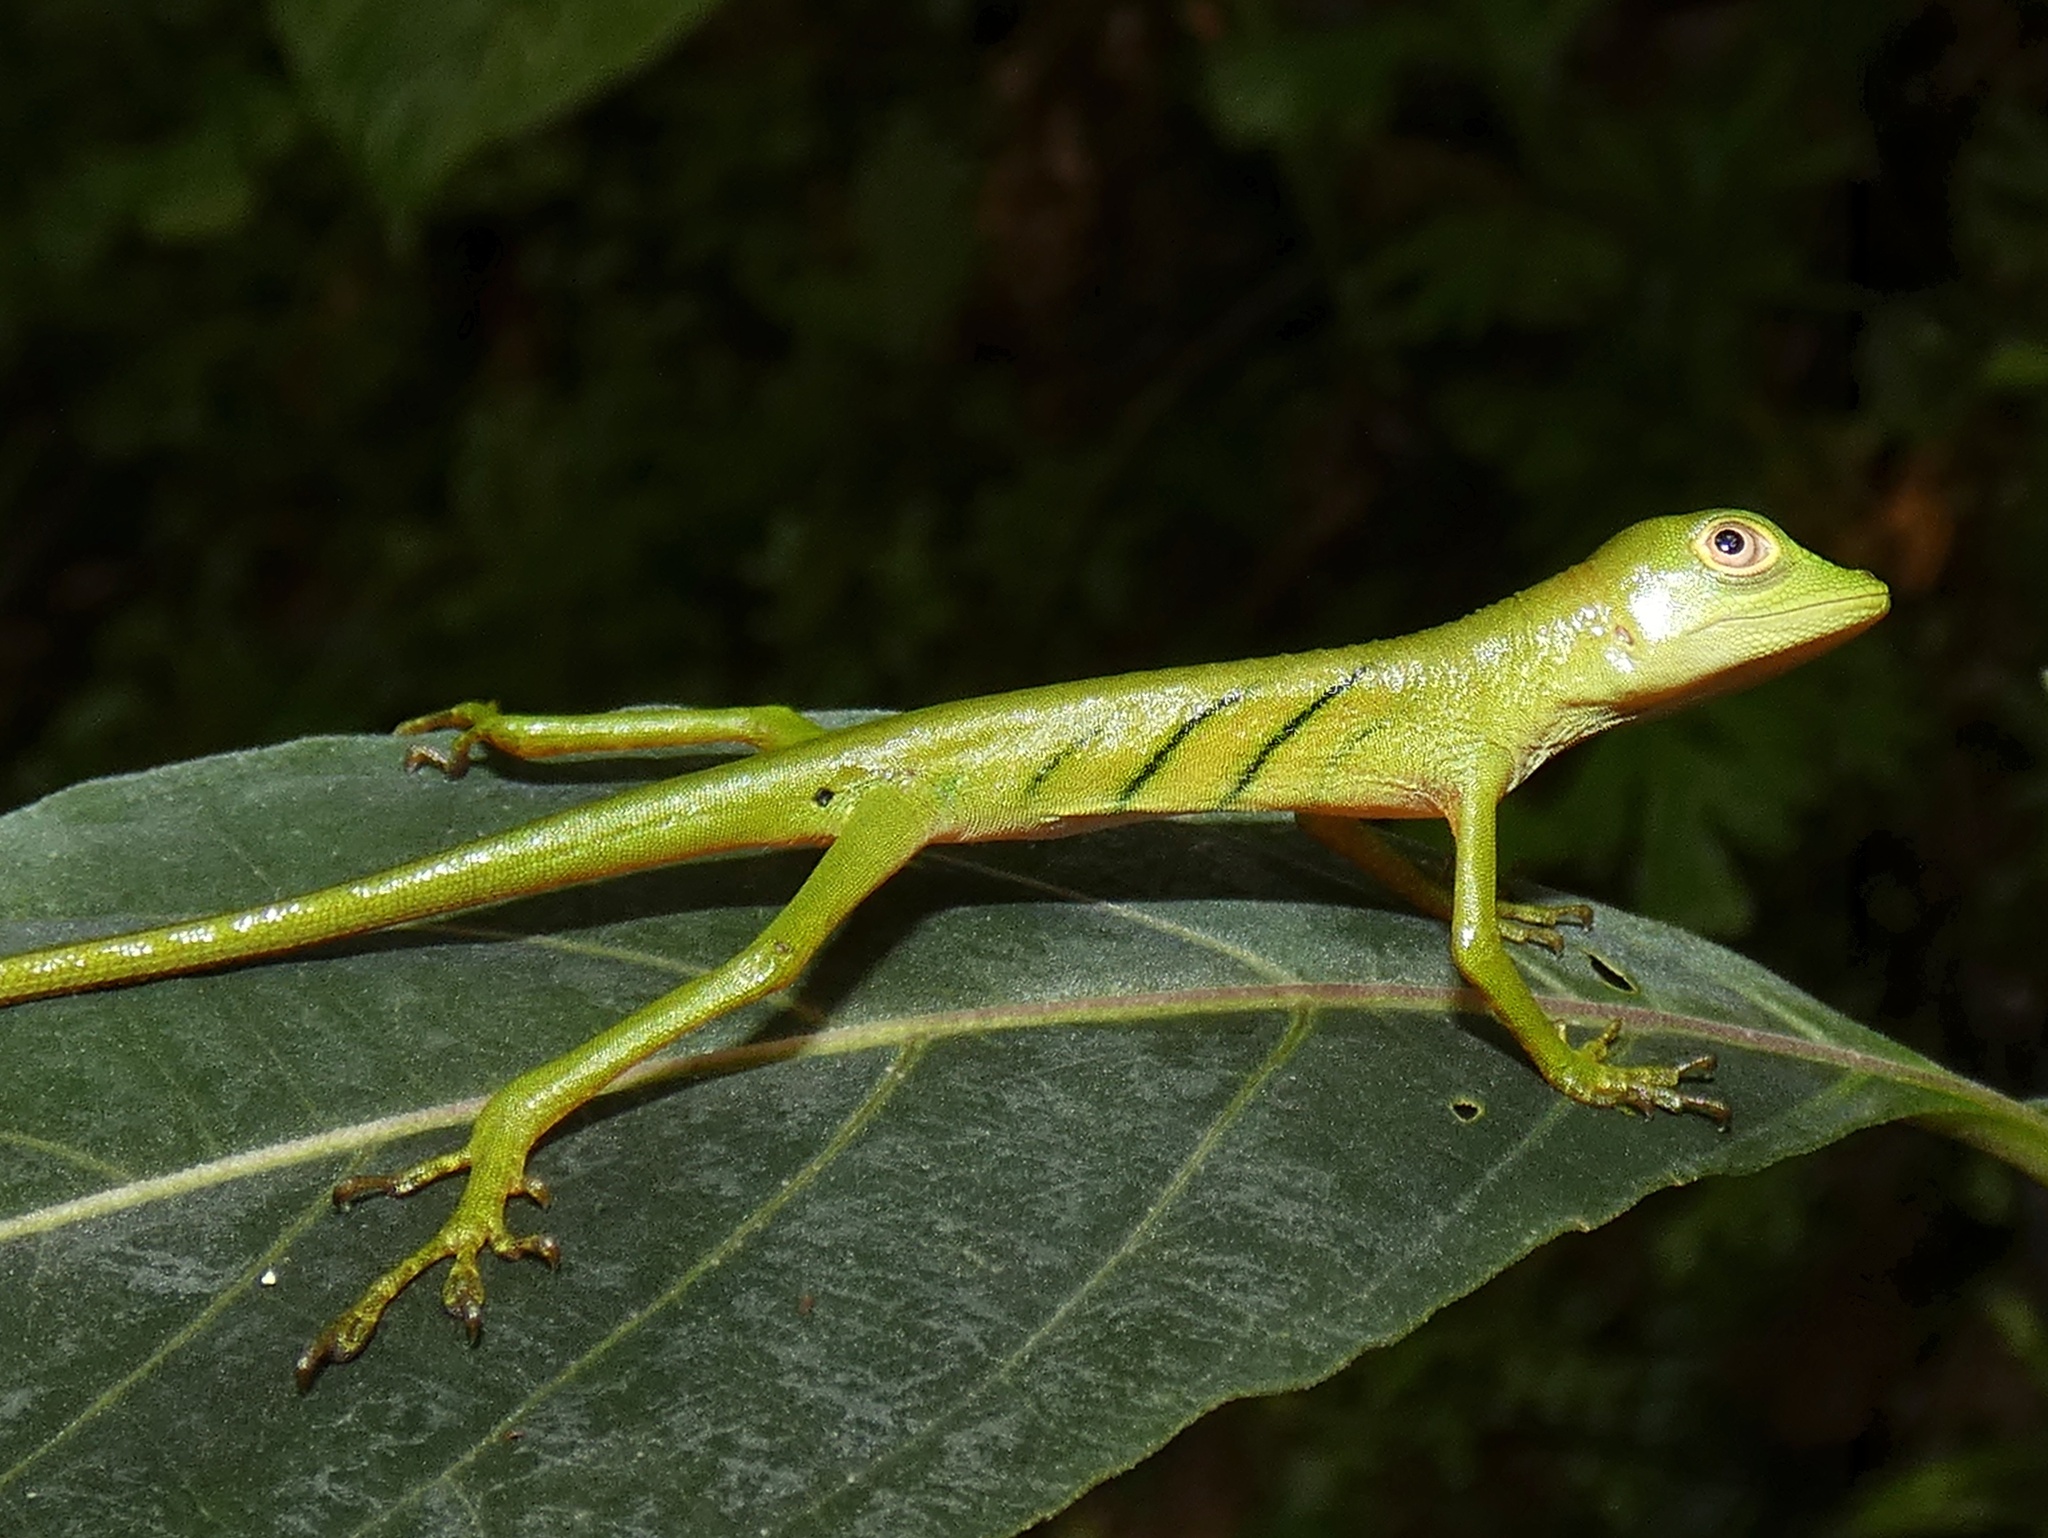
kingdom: Animalia
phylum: Chordata
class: Squamata
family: Dactyloidae
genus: Anolis
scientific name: Anolis ibanezi
